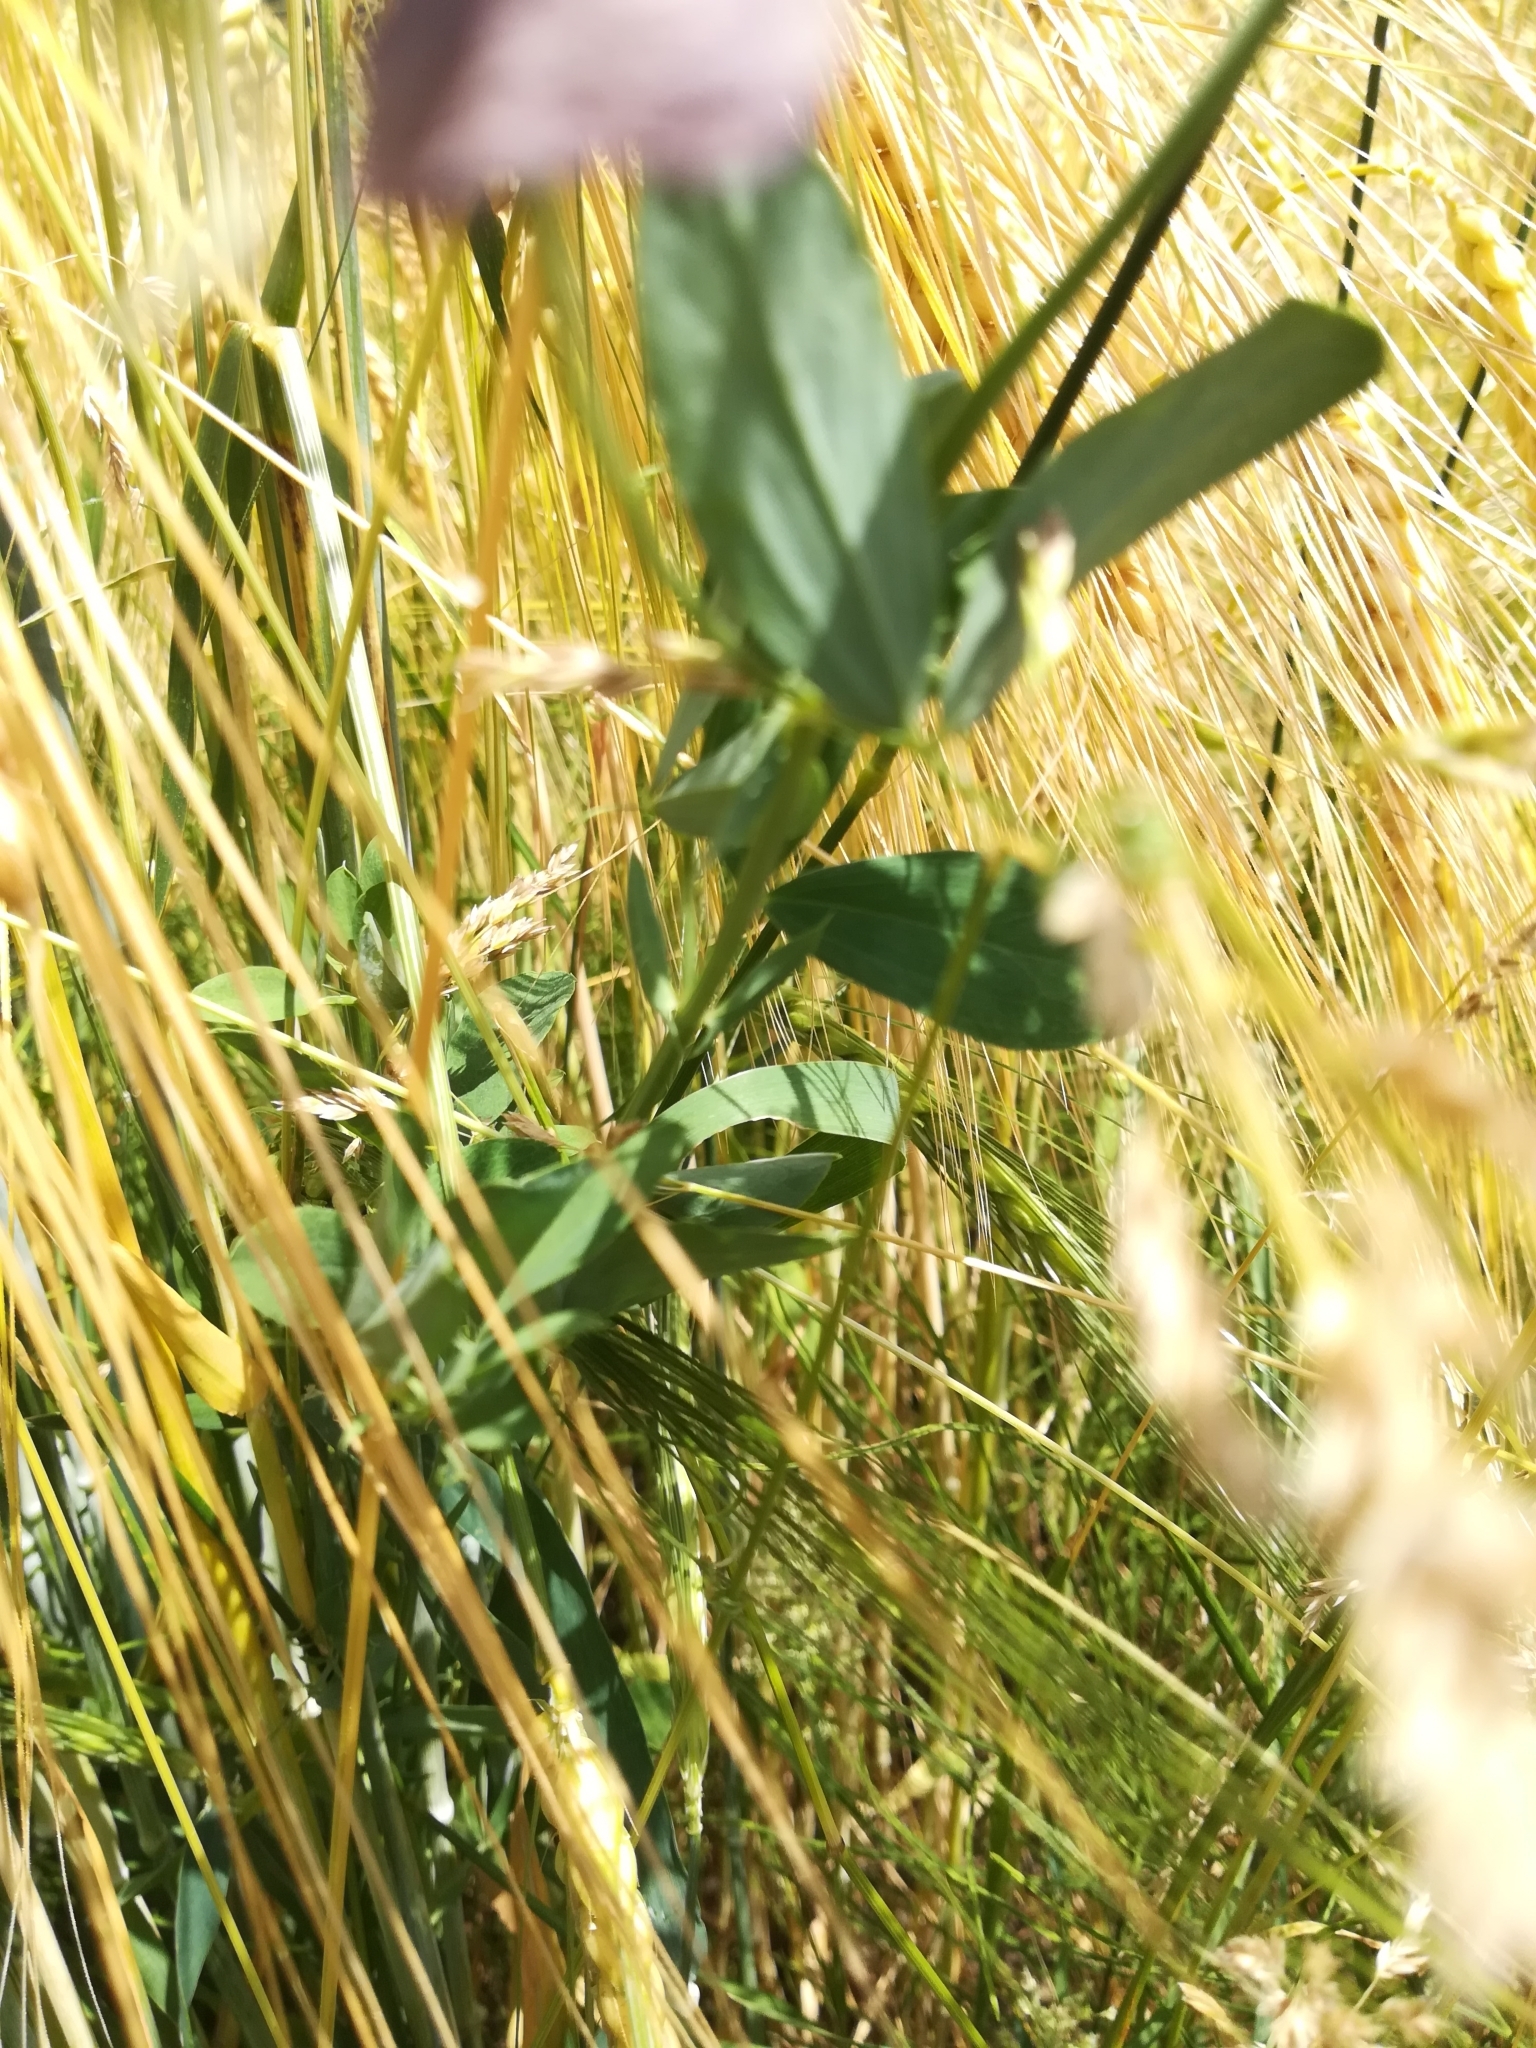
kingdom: Plantae
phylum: Tracheophyta
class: Magnoliopsida
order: Fabales
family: Fabaceae
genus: Lathyrus
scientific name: Lathyrus tuberosus
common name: Tuberous pea
